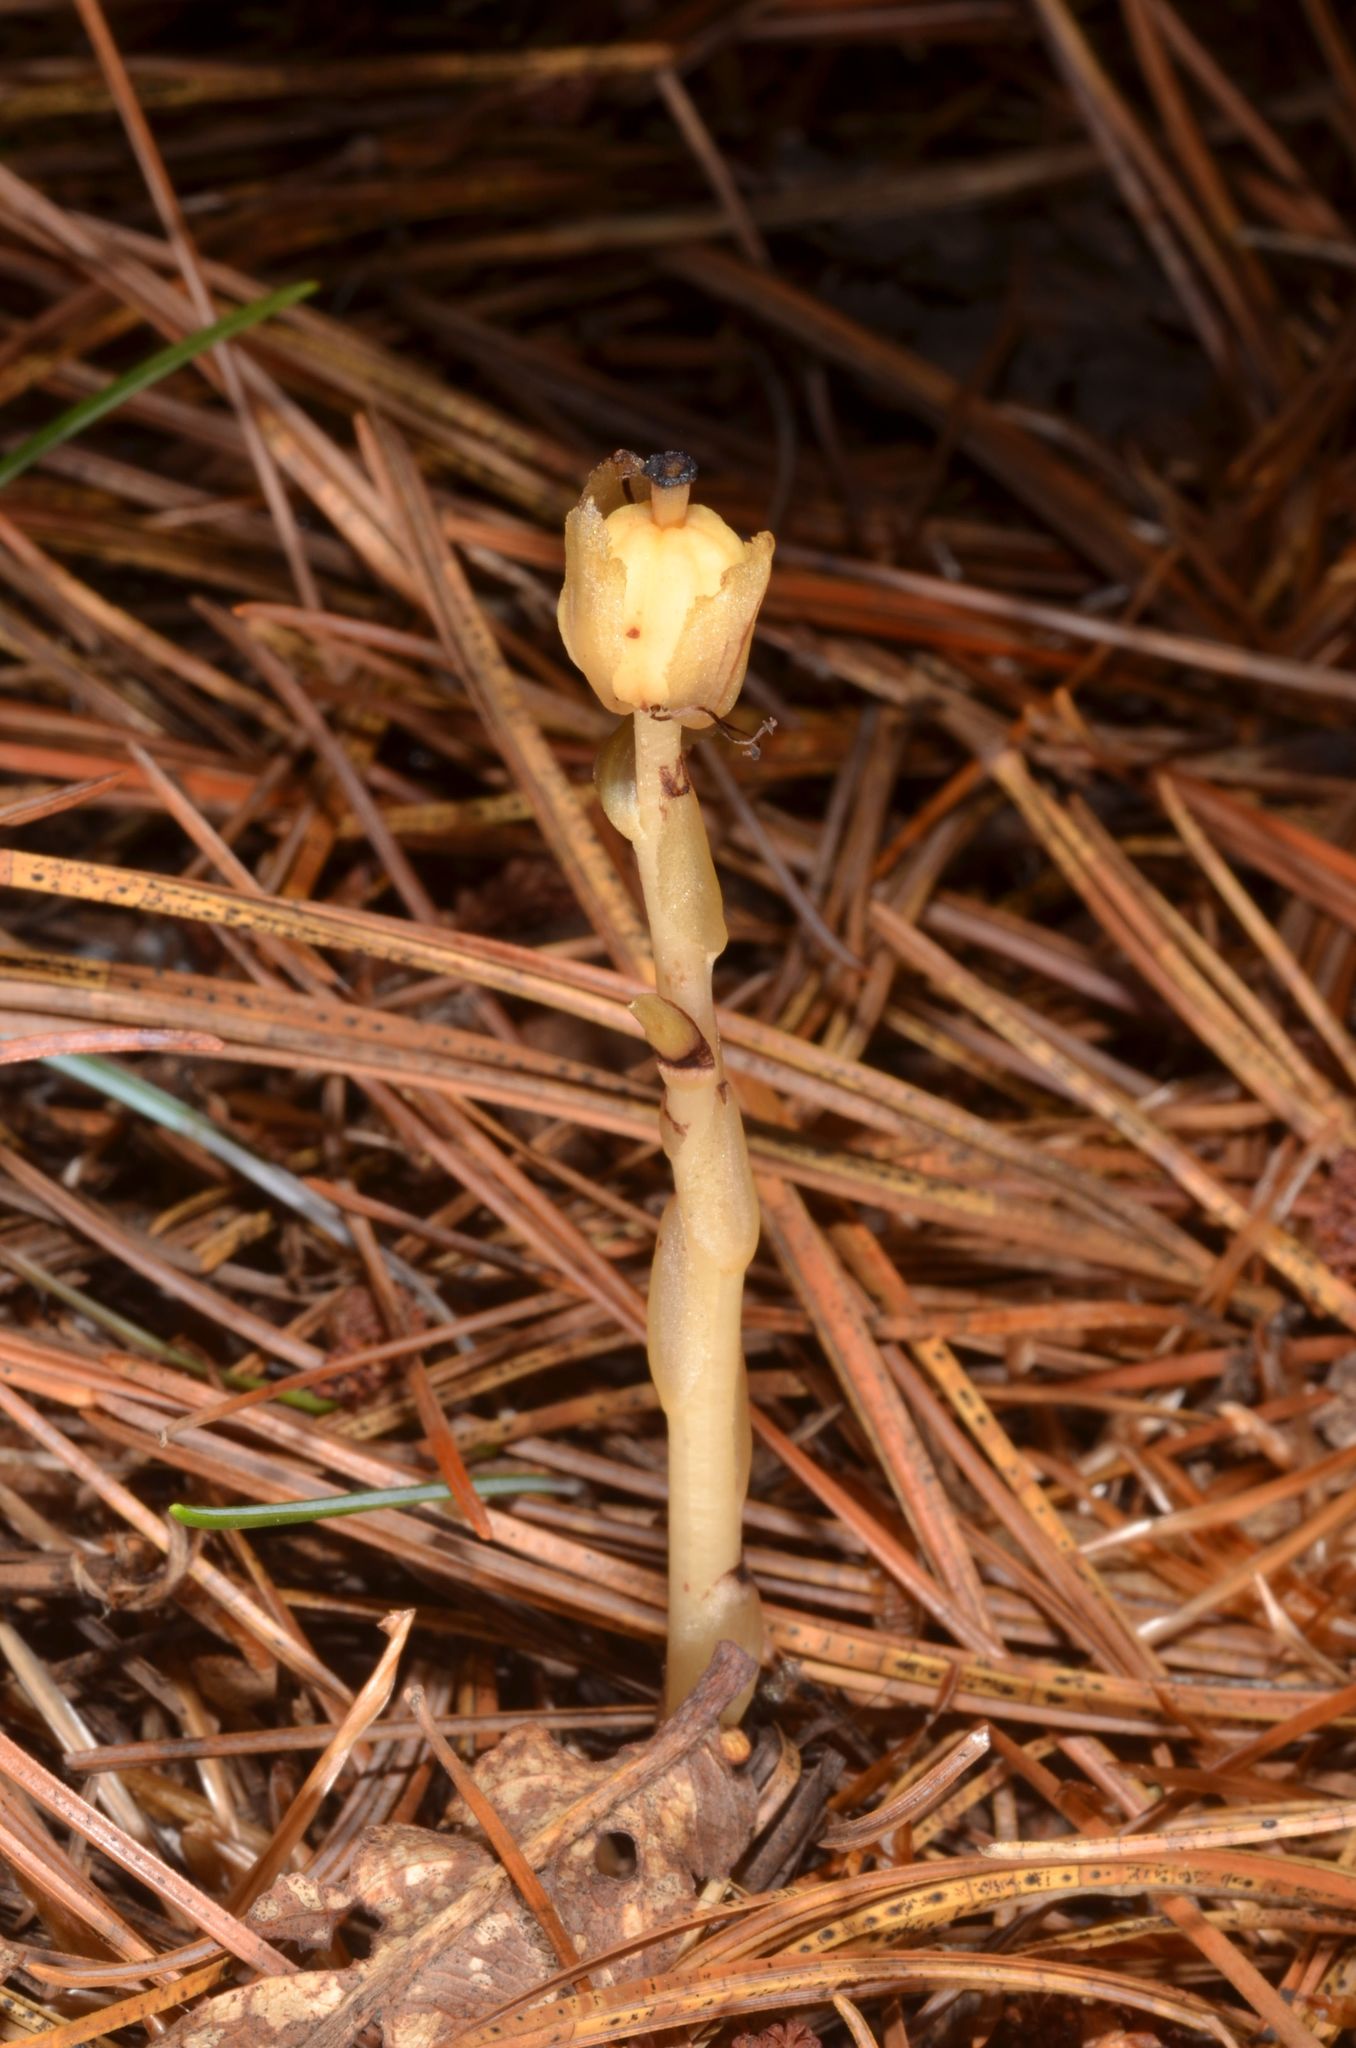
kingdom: Plantae
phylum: Tracheophyta
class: Magnoliopsida
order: Ericales
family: Ericaceae
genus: Hypopitys
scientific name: Hypopitys monotropa
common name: Yellow bird's-nest
